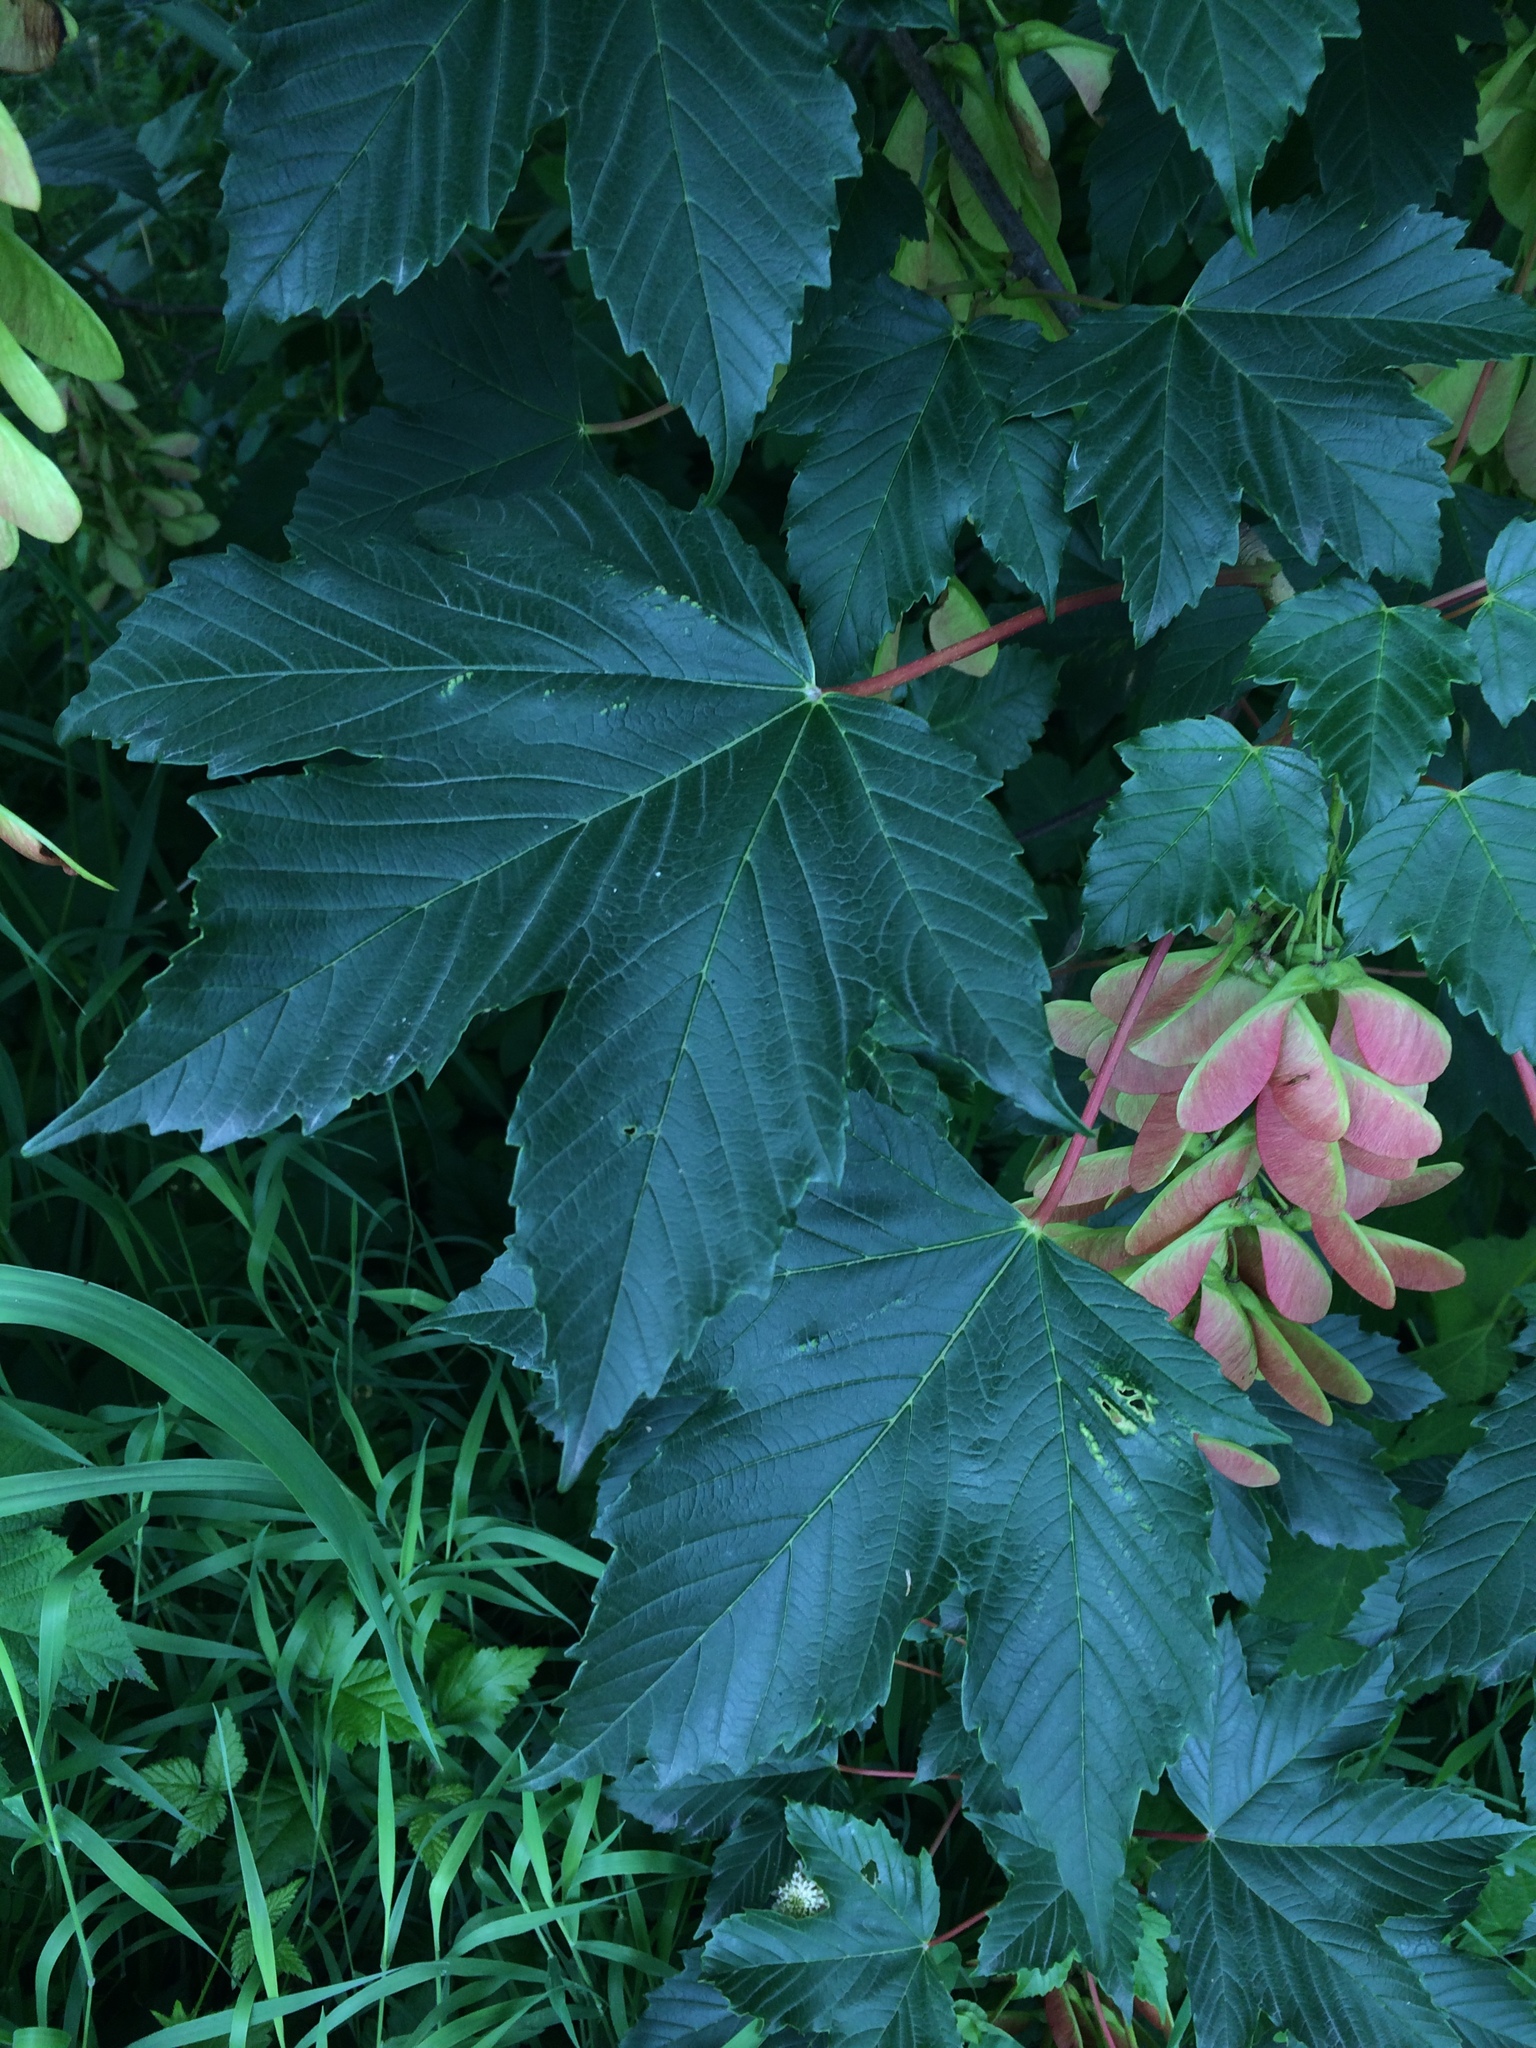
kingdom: Plantae
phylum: Tracheophyta
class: Magnoliopsida
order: Sapindales
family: Sapindaceae
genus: Acer
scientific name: Acer pseudoplatanus
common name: Sycamore
